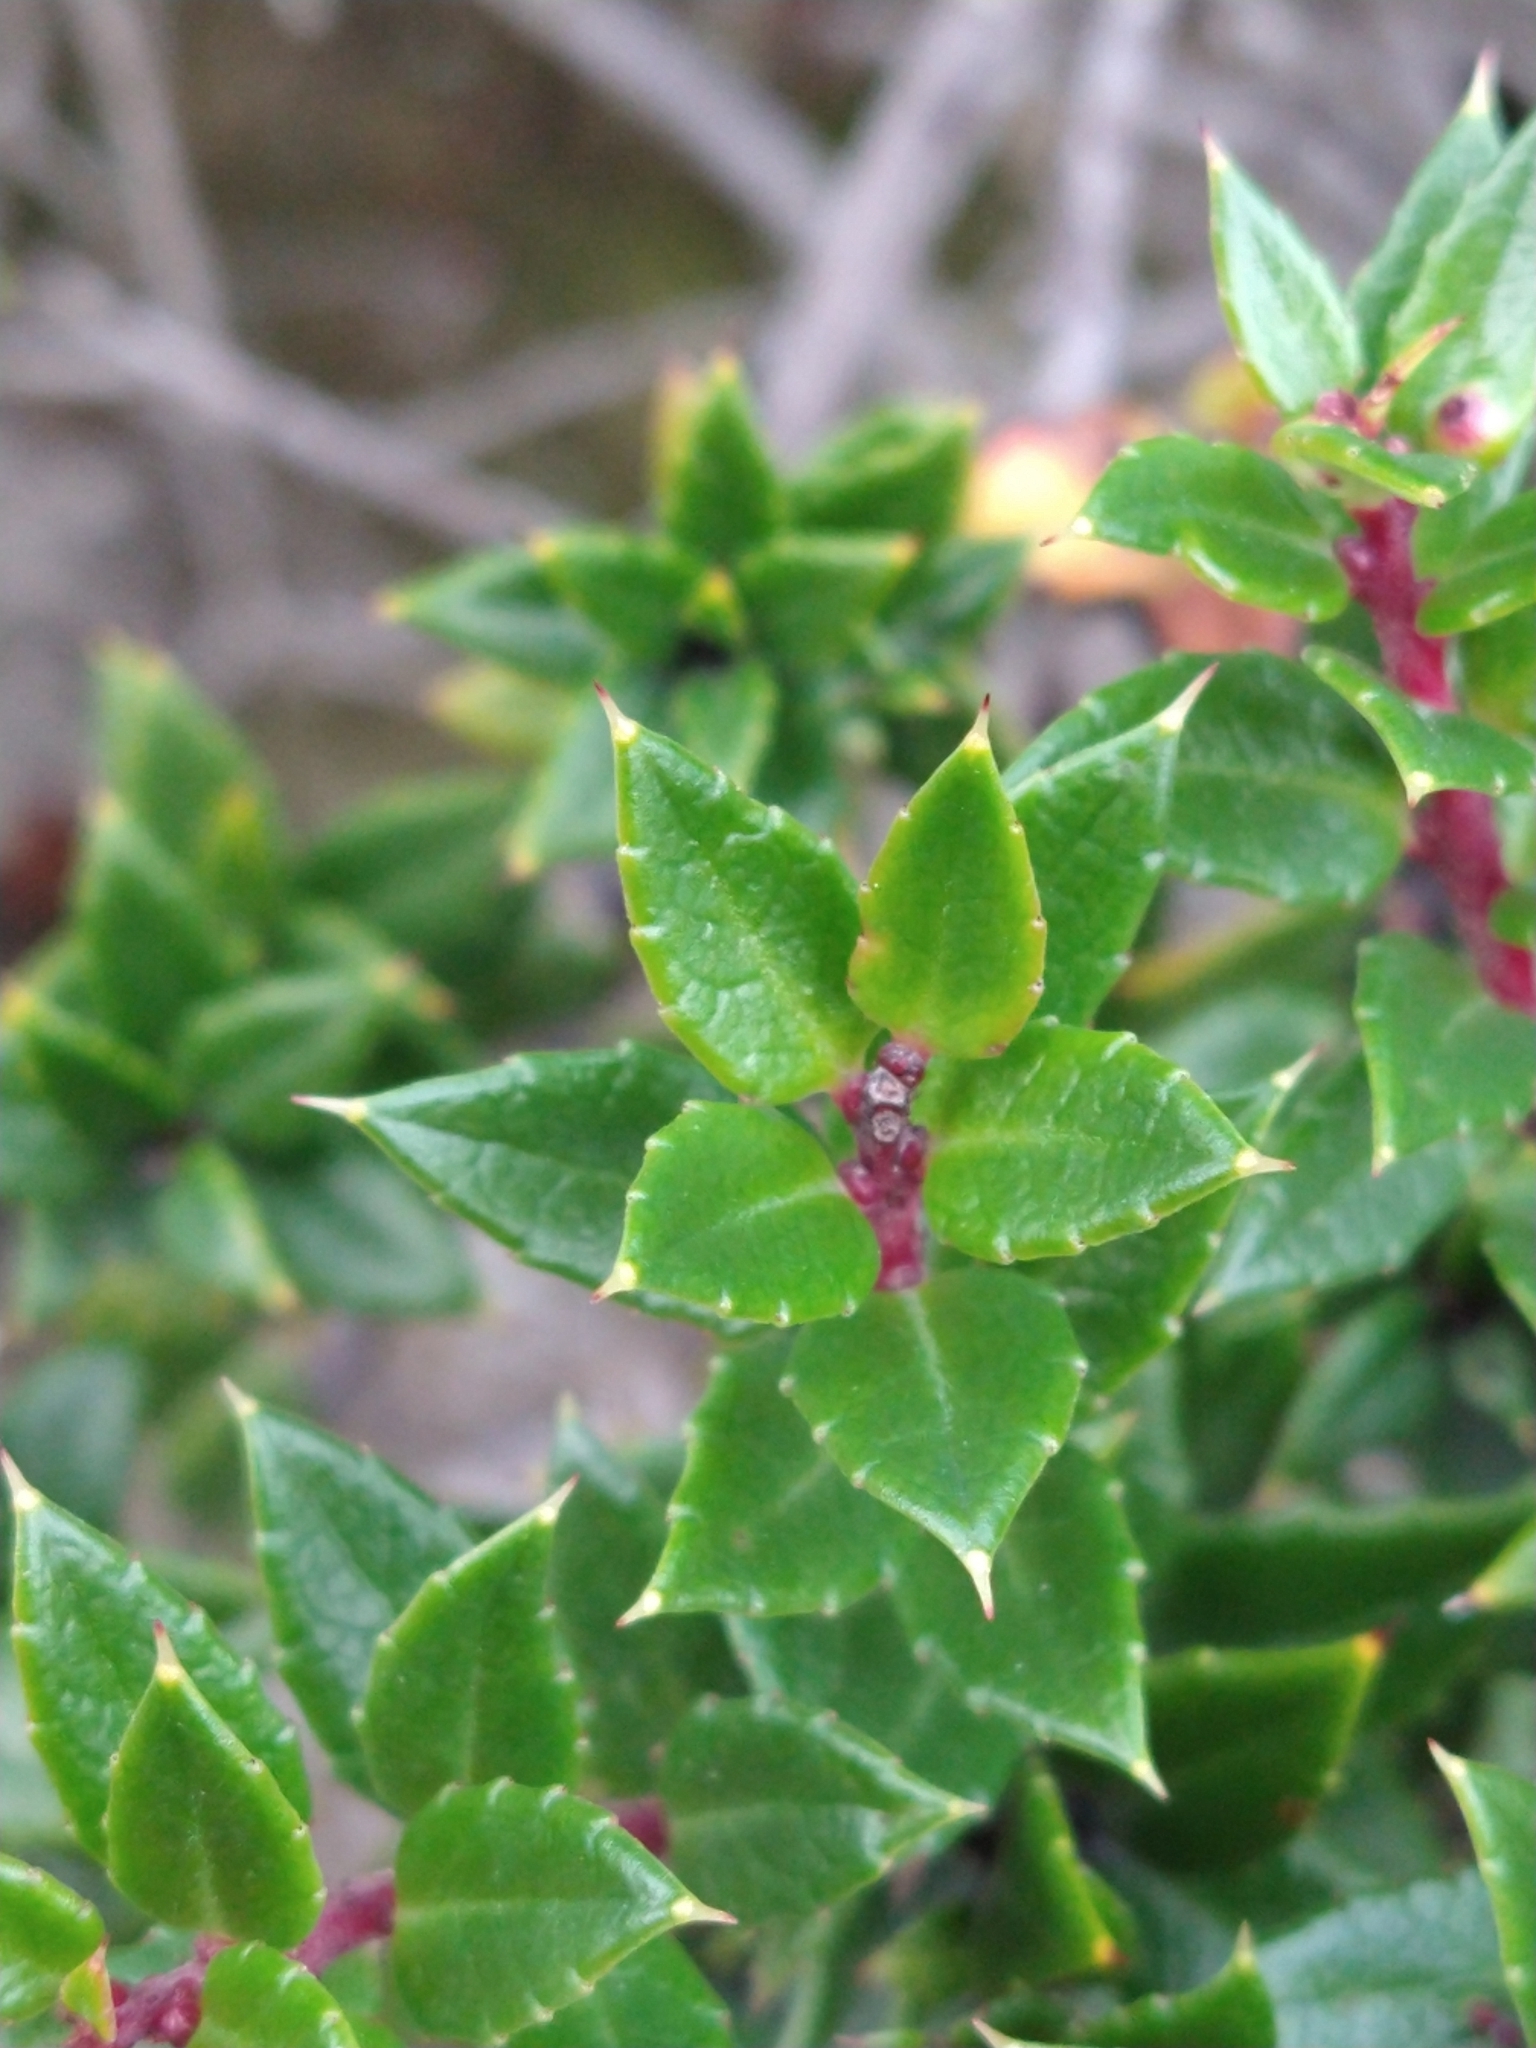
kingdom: Plantae
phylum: Tracheophyta
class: Magnoliopsida
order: Ericales
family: Ericaceae
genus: Gaultheria
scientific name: Gaultheria mucronata
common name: Prickly heath
